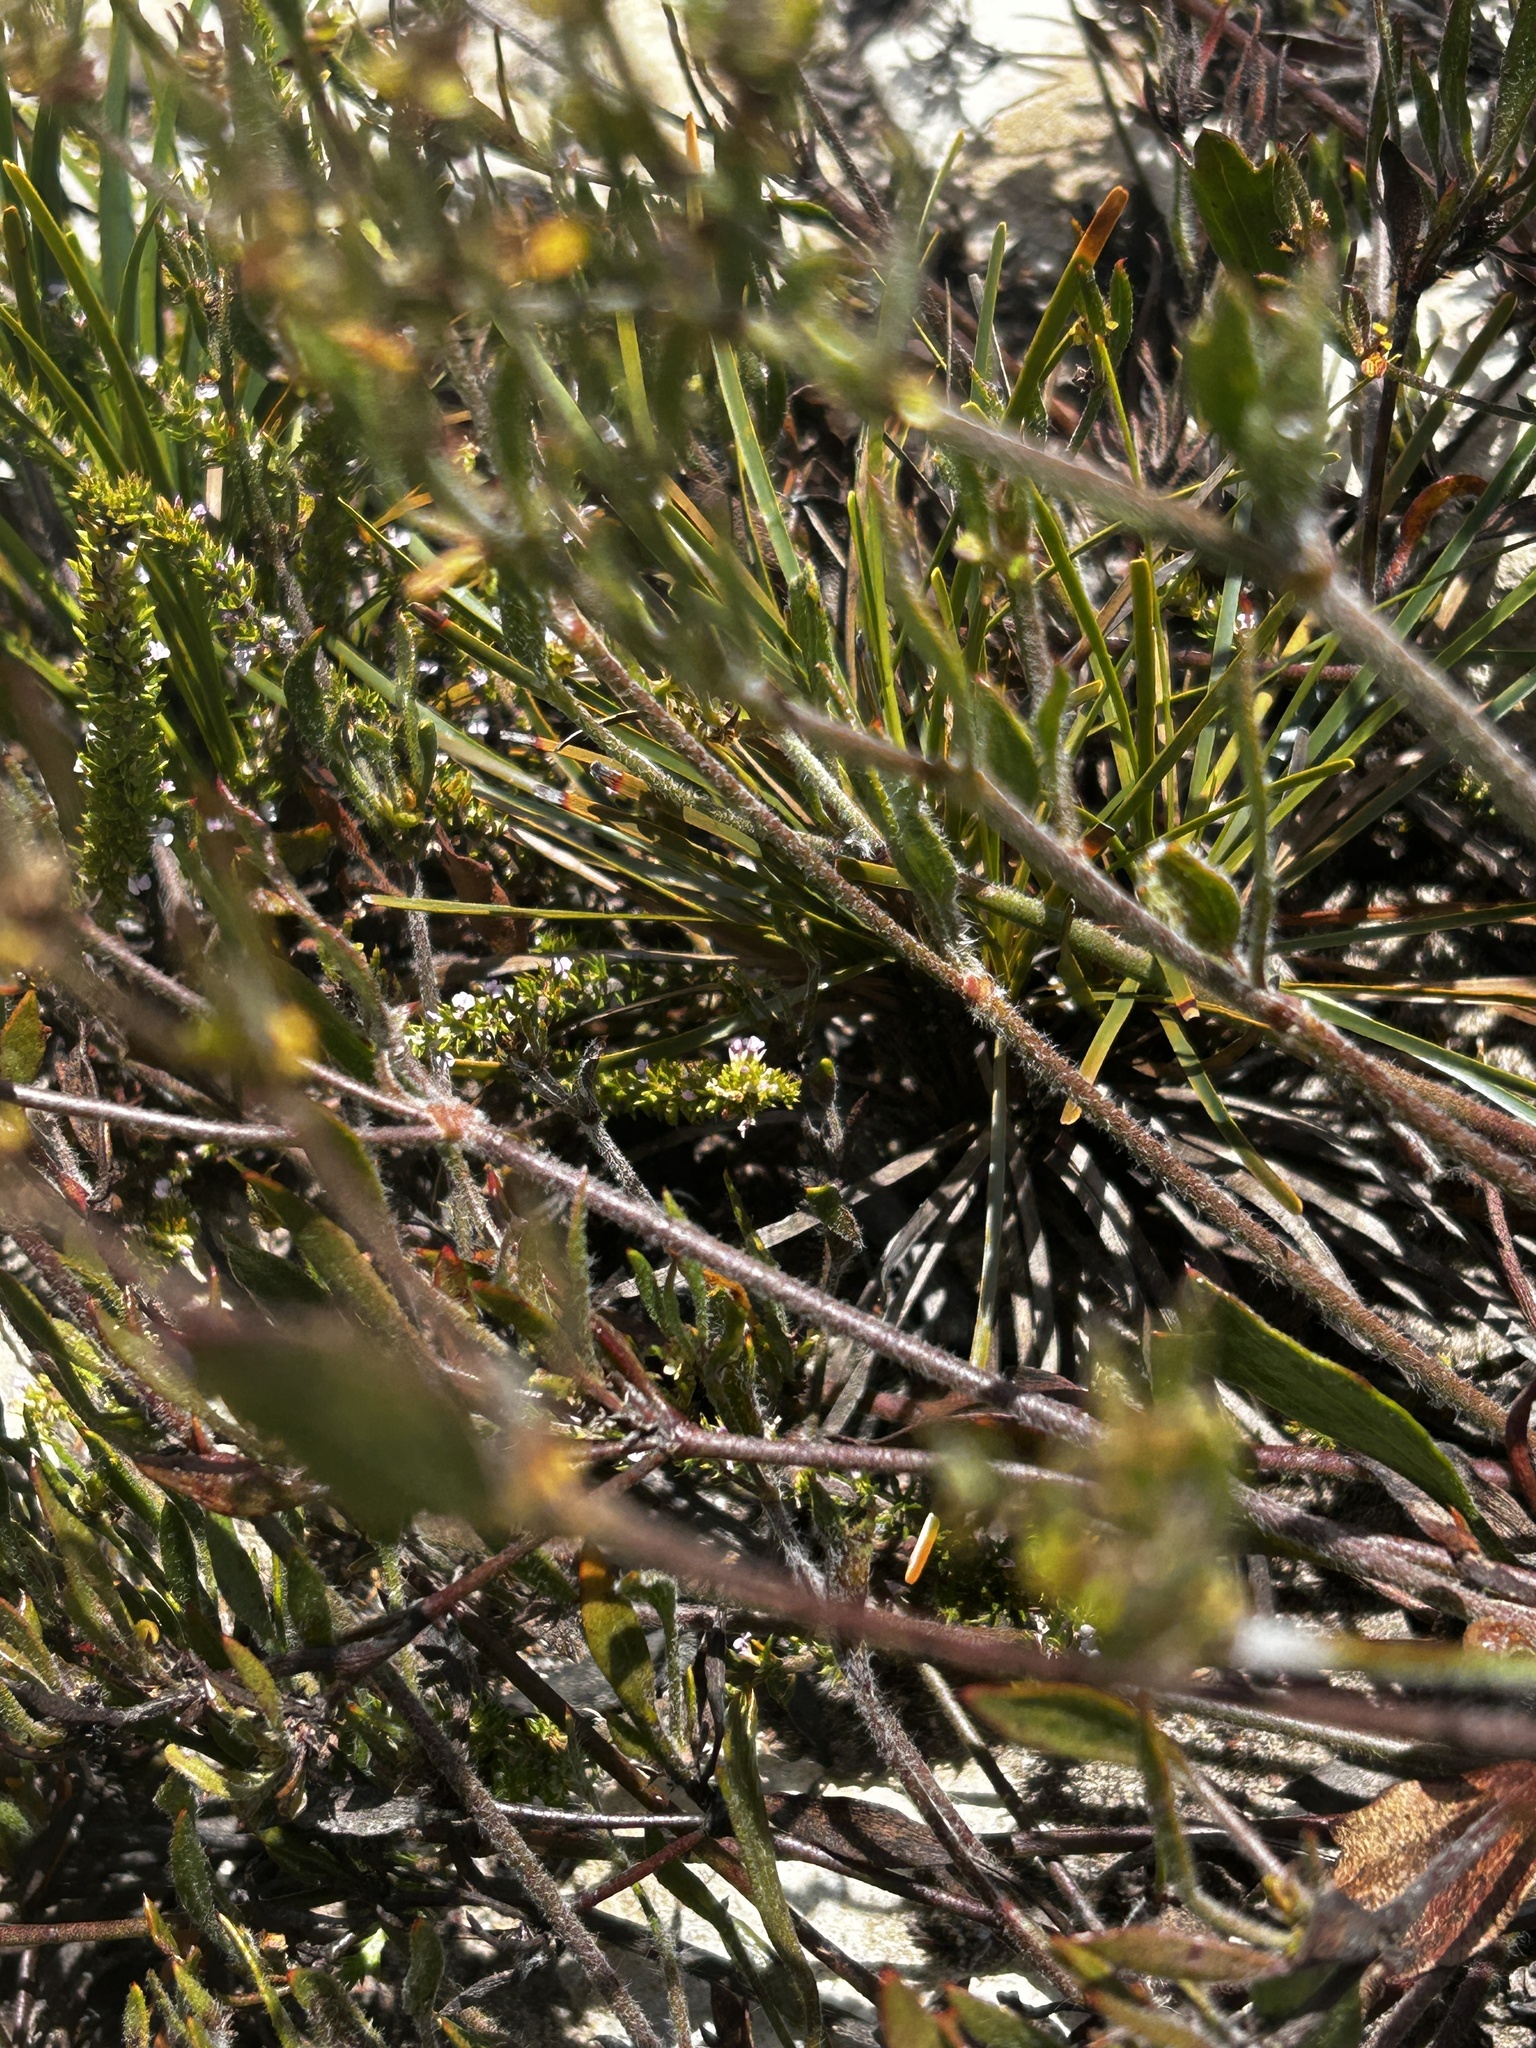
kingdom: Plantae
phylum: Tracheophyta
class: Magnoliopsida
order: Apiales
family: Apiaceae
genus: Centella
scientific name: Centella brachycarpa
